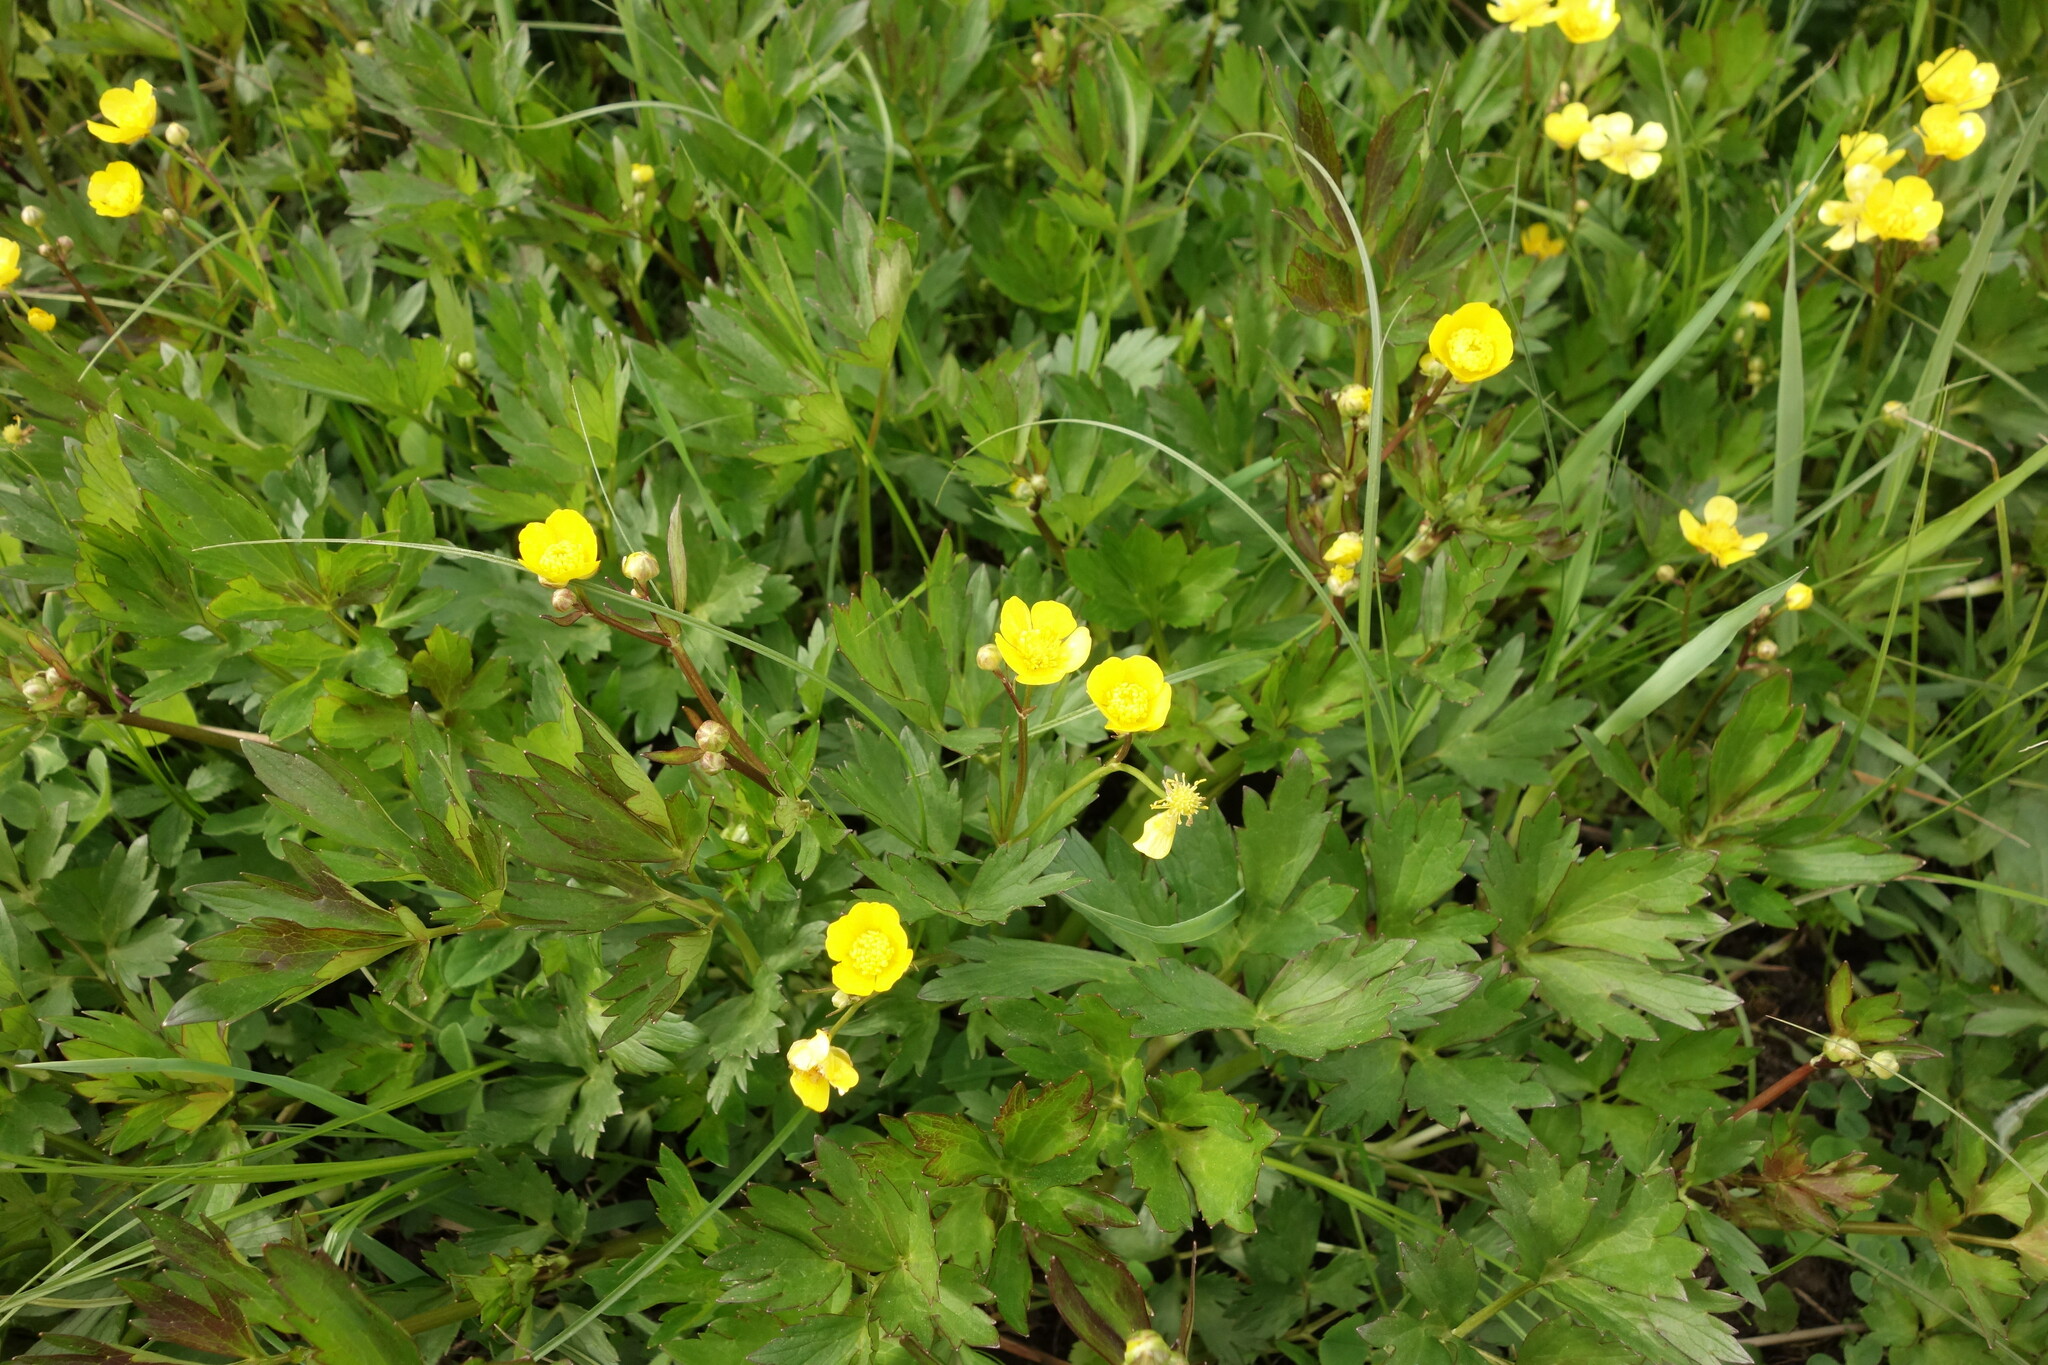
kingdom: Plantae
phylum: Tracheophyta
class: Magnoliopsida
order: Ranunculales
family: Ranunculaceae
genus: Ranunculus
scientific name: Ranunculus repens
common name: Creeping buttercup
